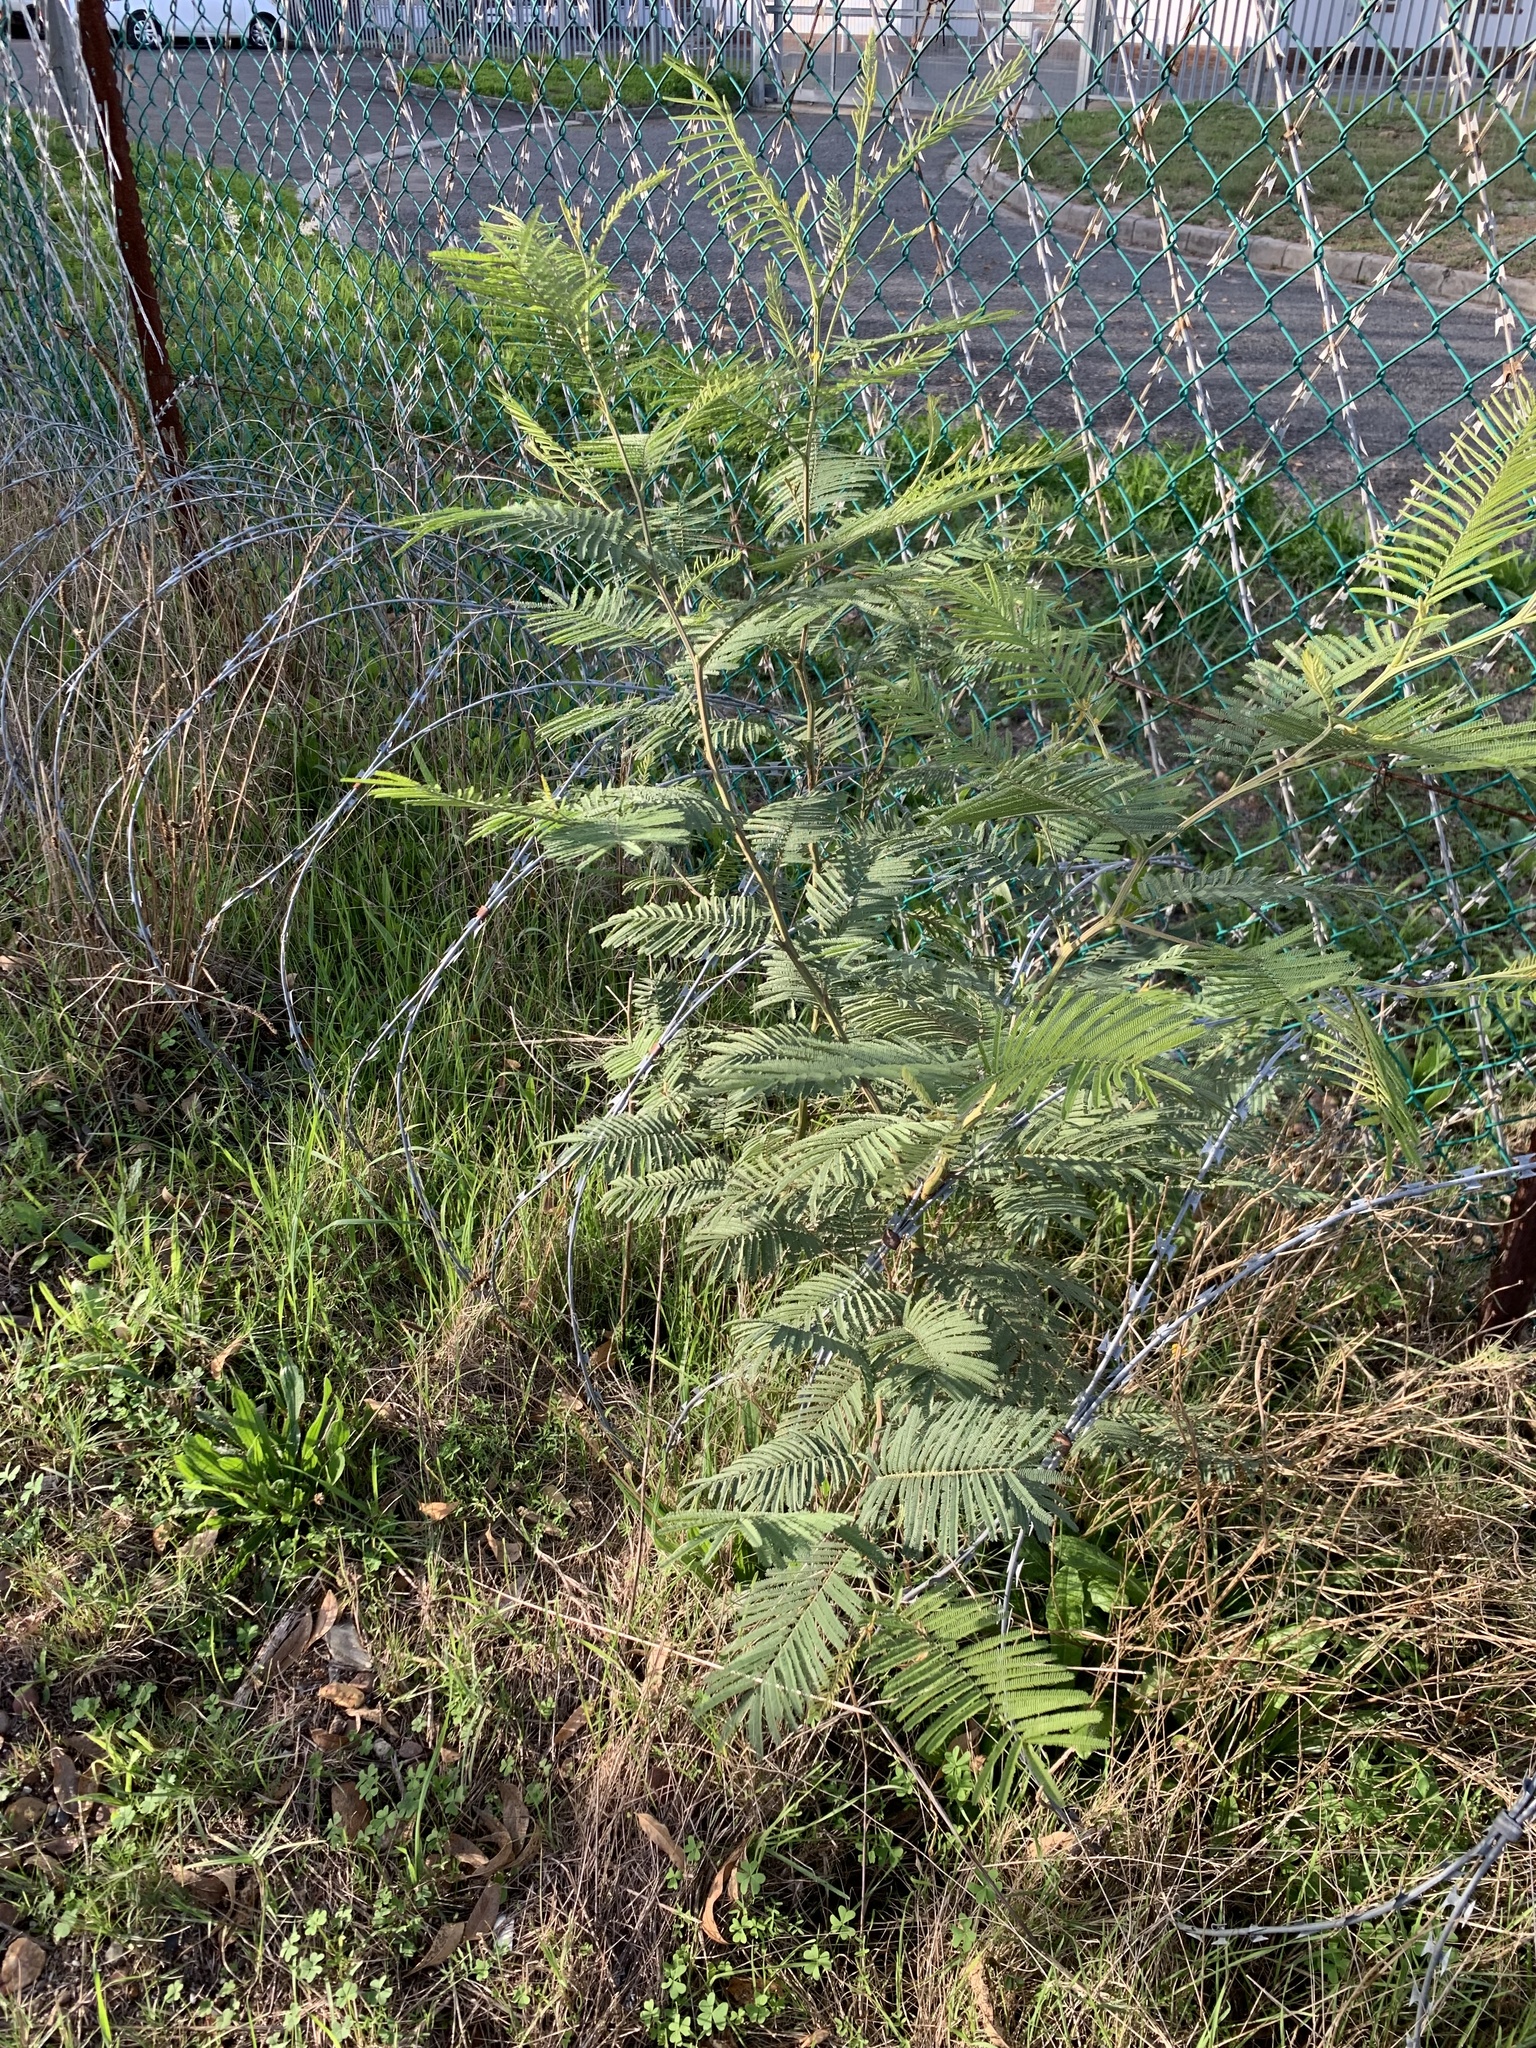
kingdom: Plantae
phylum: Tracheophyta
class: Magnoliopsida
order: Fabales
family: Fabaceae
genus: Acacia
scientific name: Acacia mearnsii
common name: Black wattle
